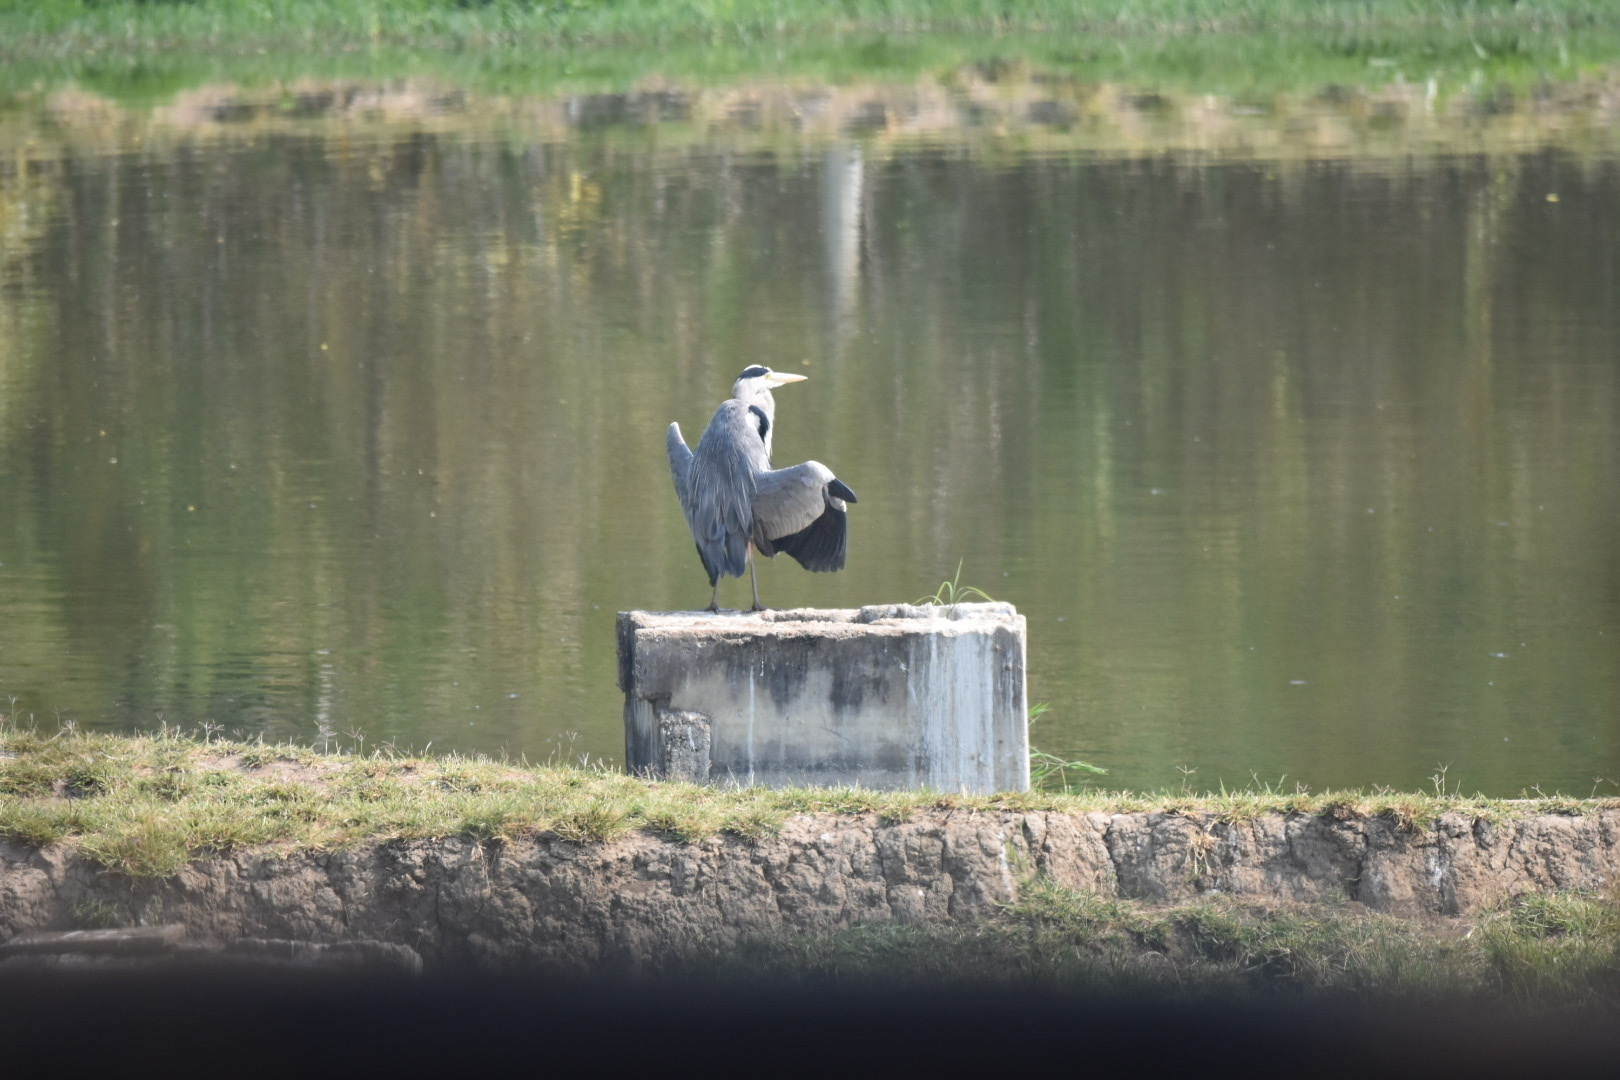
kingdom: Animalia
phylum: Chordata
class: Aves
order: Pelecaniformes
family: Ardeidae
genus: Ardea
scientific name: Ardea cinerea
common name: Grey heron
